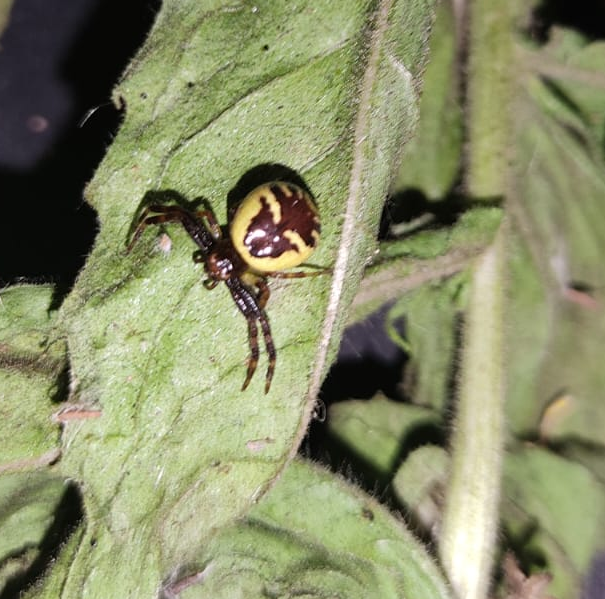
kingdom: Animalia
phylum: Arthropoda
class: Arachnida
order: Araneae
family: Thomisidae
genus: Synema
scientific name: Synema globosum
